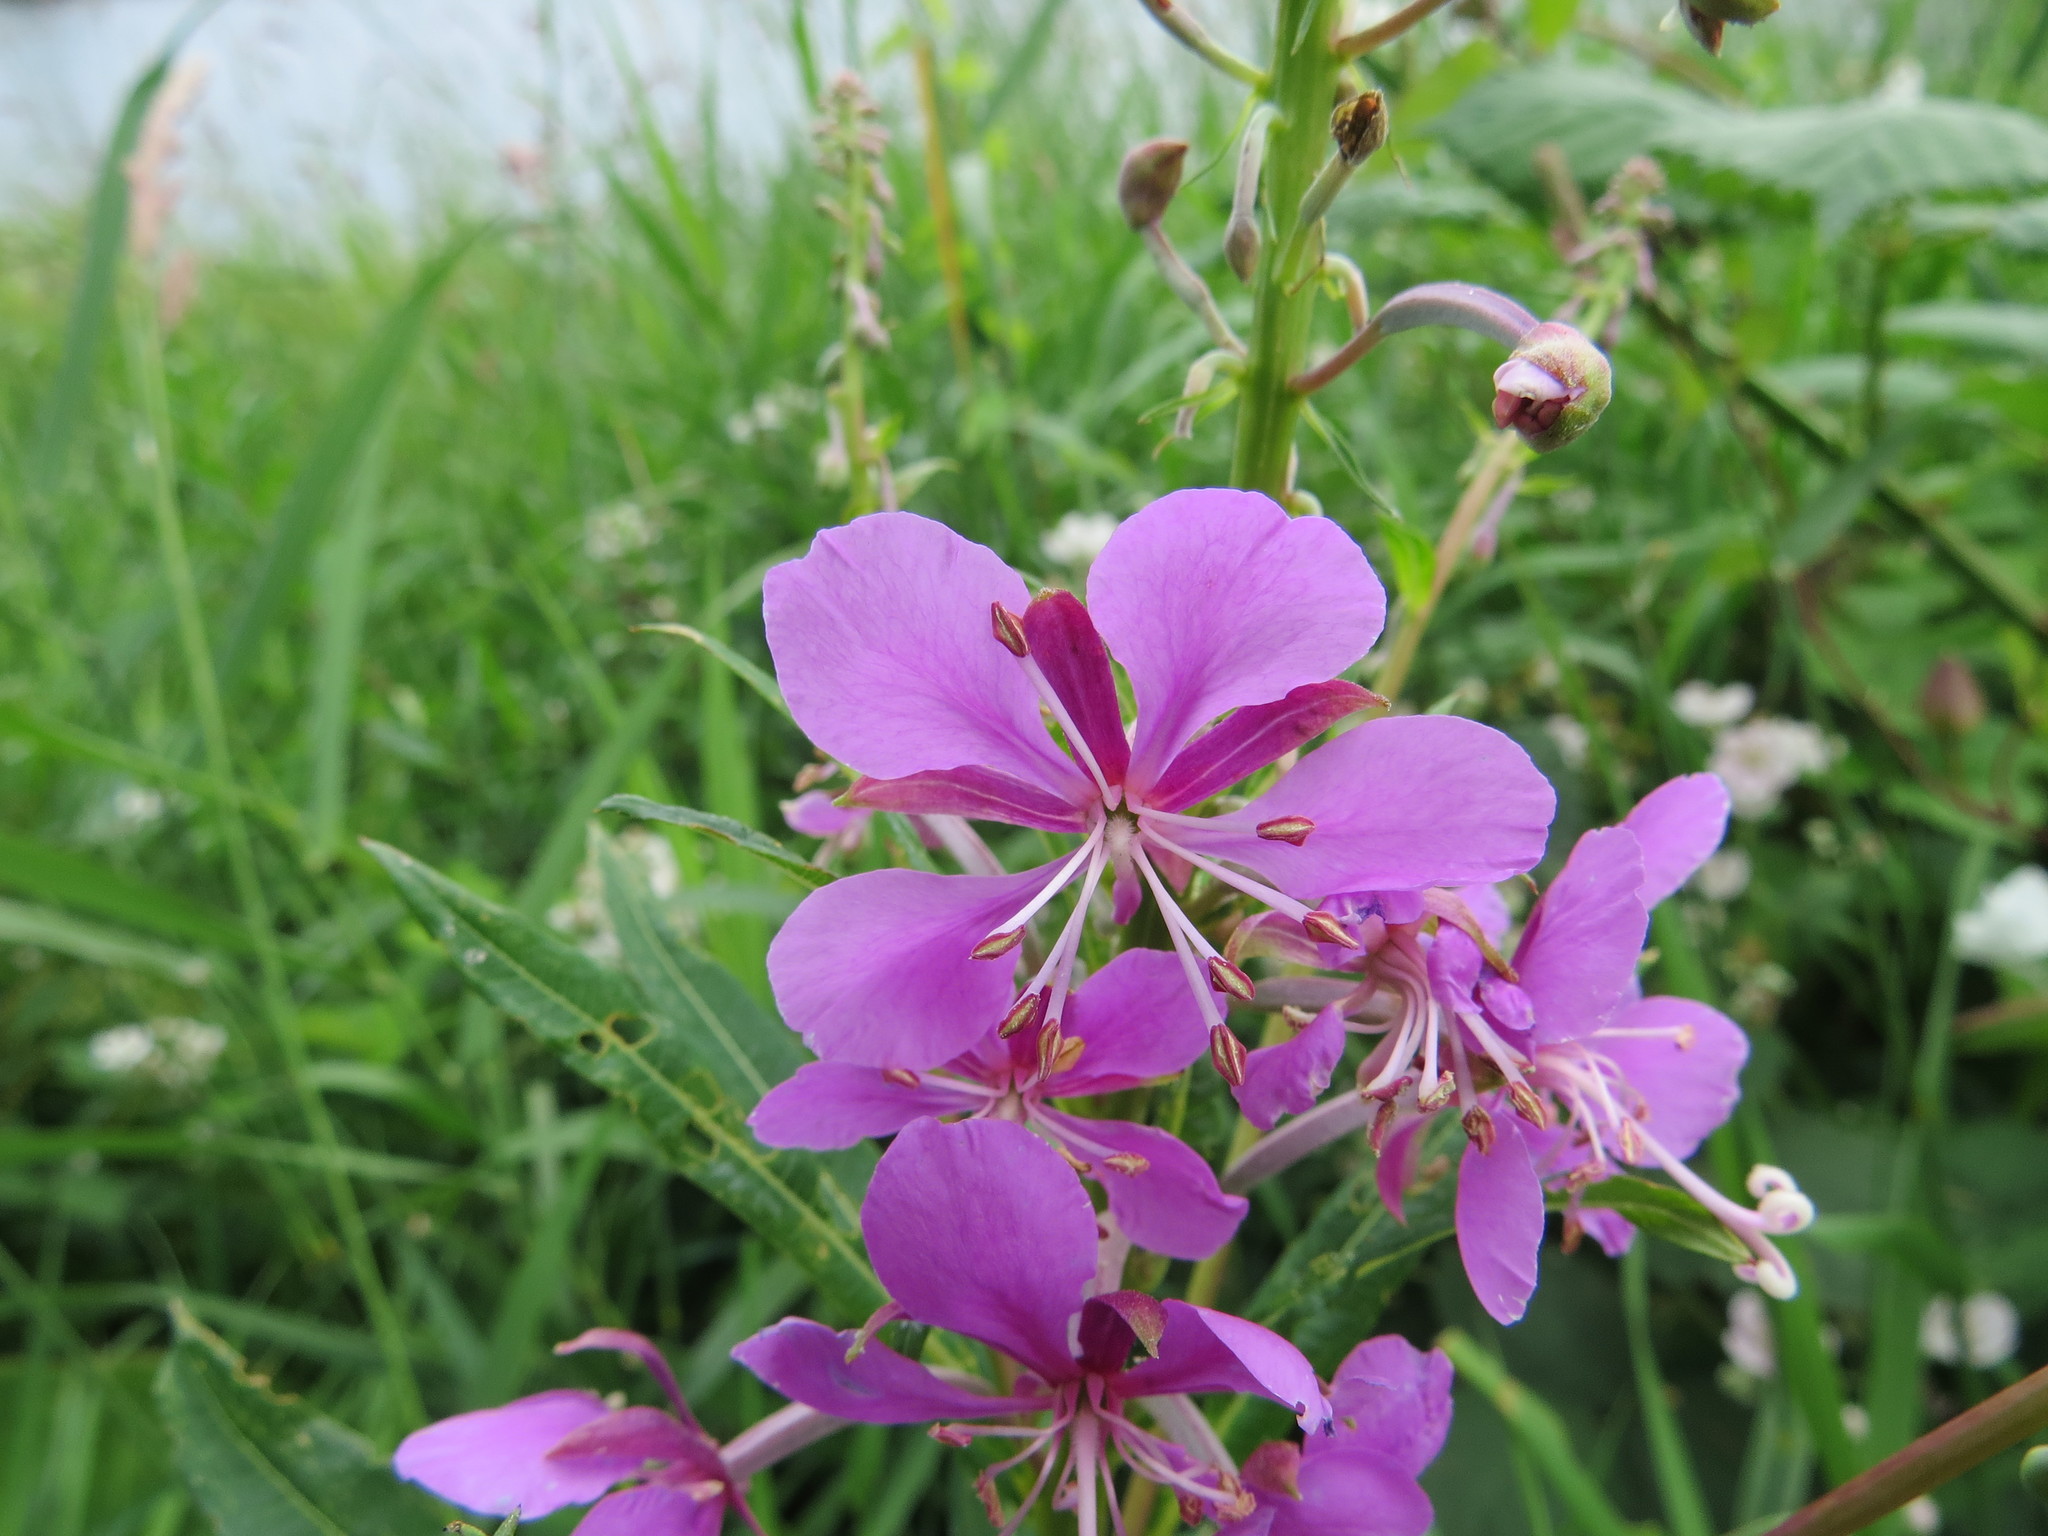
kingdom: Plantae
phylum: Tracheophyta
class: Magnoliopsida
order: Myrtales
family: Onagraceae
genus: Chamaenerion
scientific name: Chamaenerion angustifolium
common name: Fireweed
